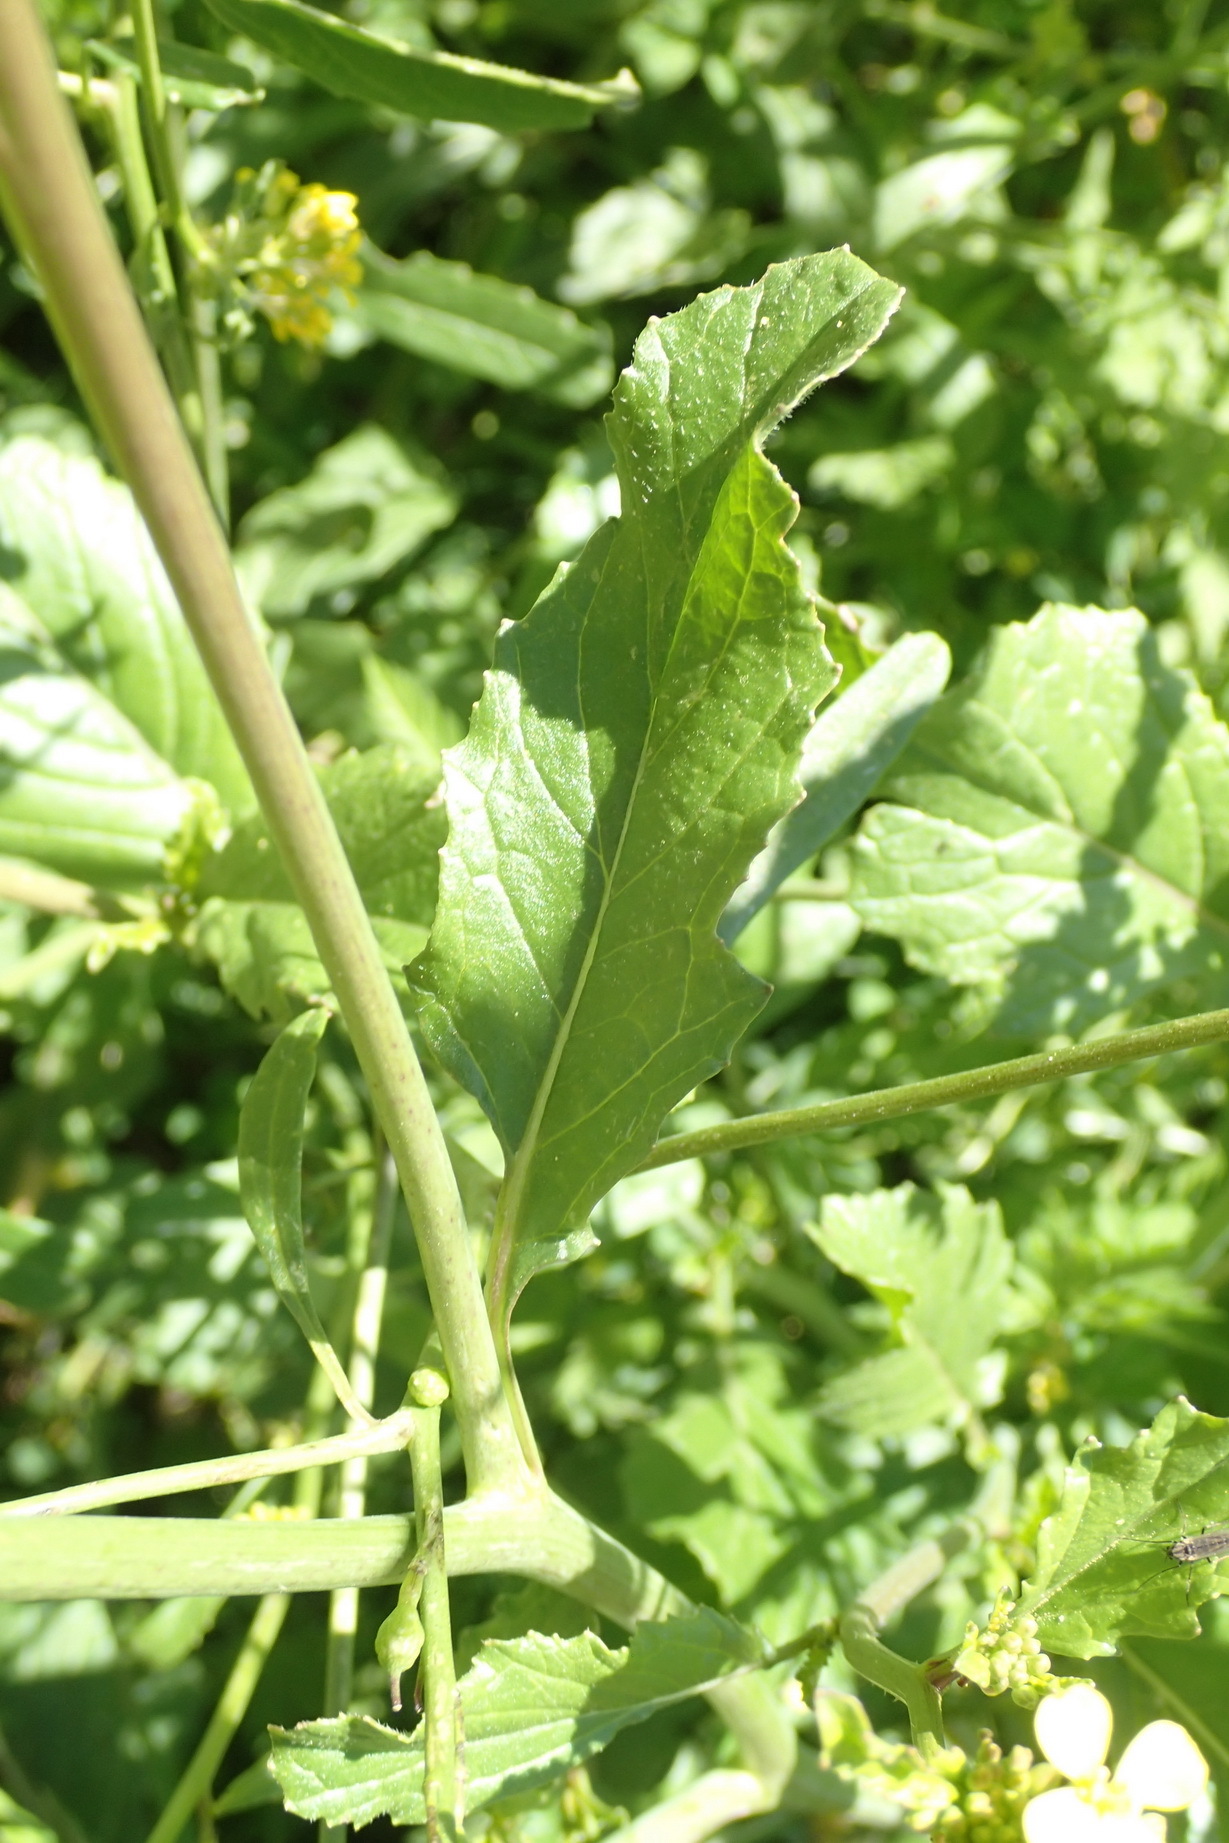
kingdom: Plantae
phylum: Tracheophyta
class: Magnoliopsida
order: Brassicales
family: Brassicaceae
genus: Rapistrum
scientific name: Rapistrum rugosum
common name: Annual bastardcabbage
